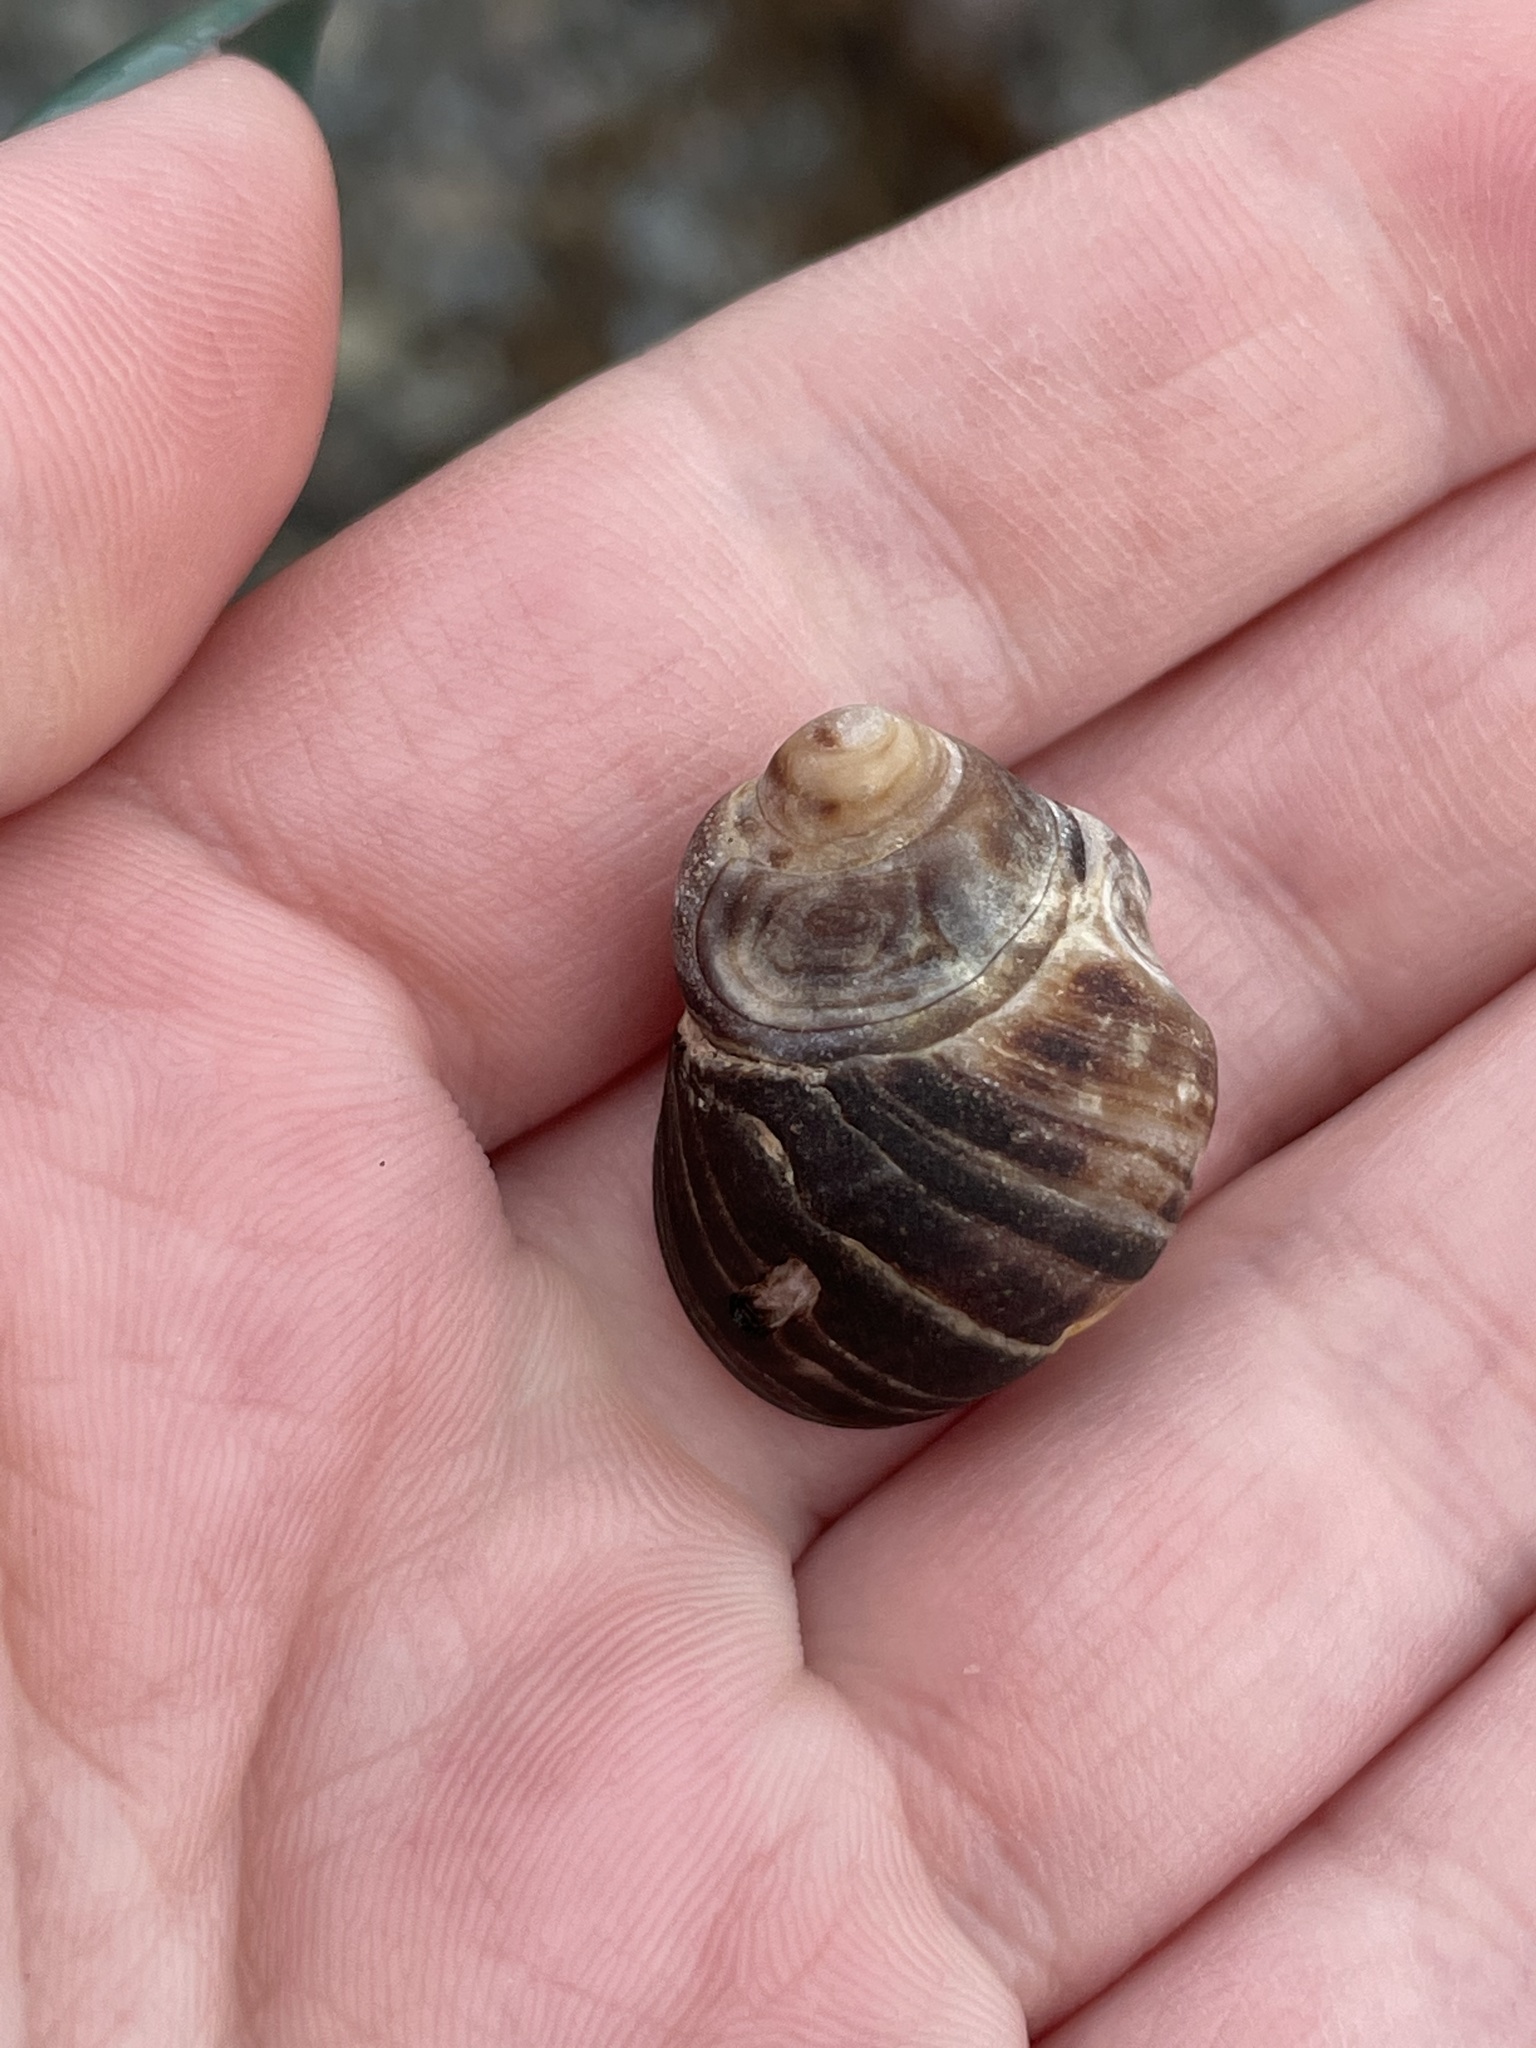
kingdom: Animalia
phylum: Mollusca
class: Gastropoda
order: Littorinimorpha
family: Littorinidae
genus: Littorina
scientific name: Littorina littorea
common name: Common periwinkle
